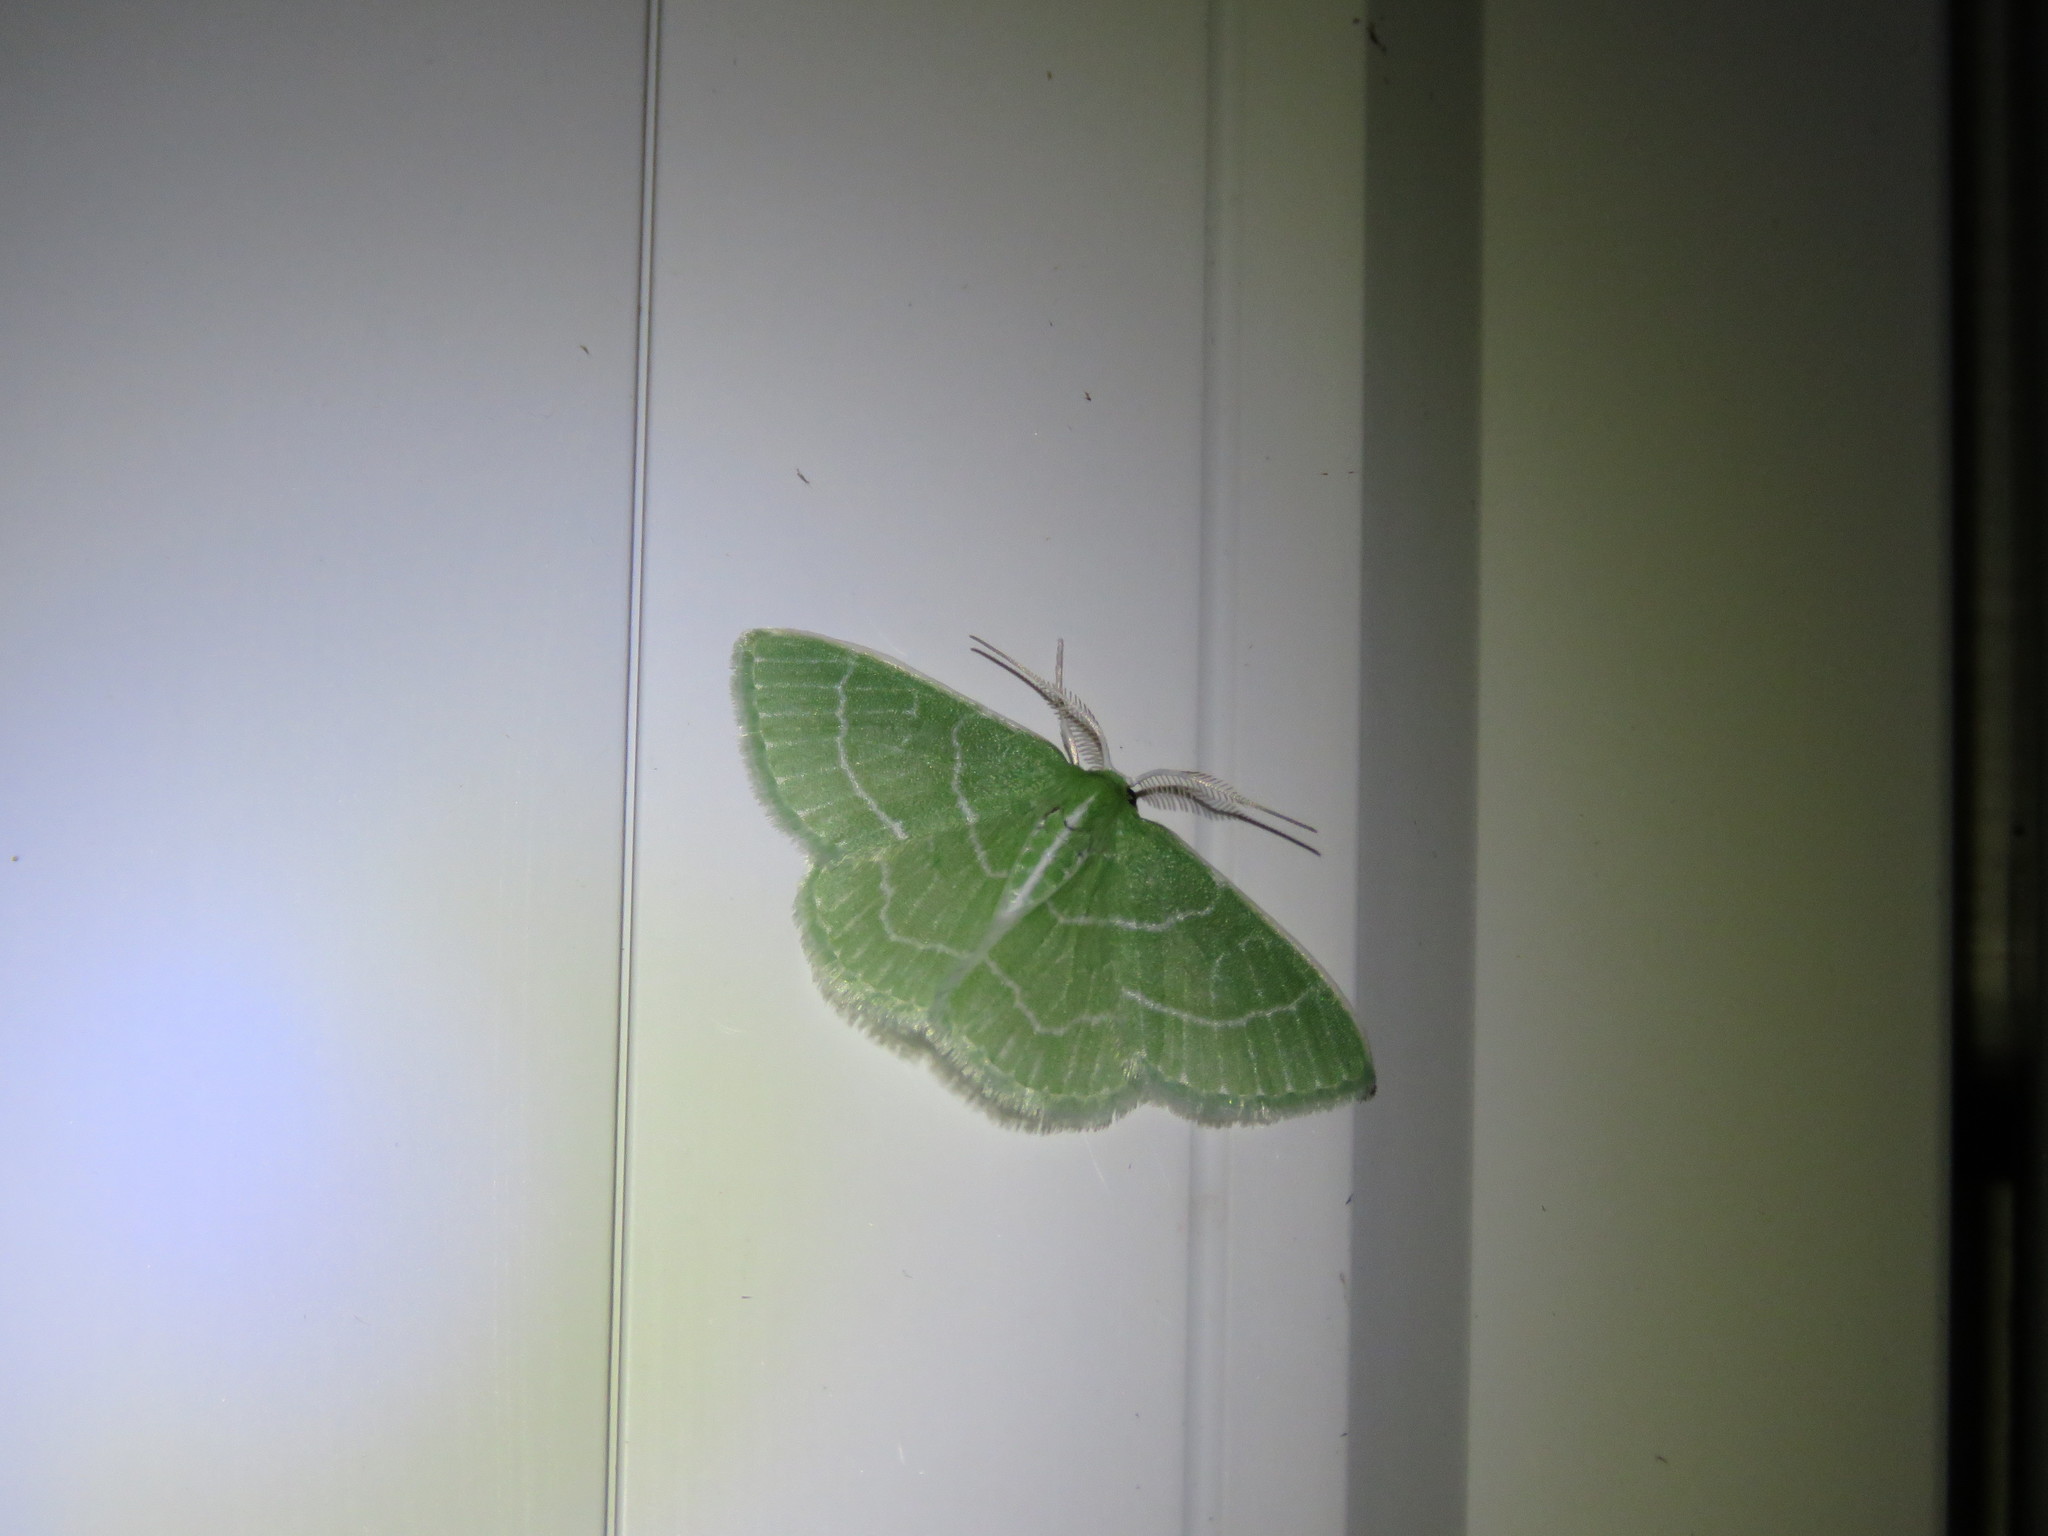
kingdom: Animalia
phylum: Arthropoda
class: Insecta
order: Lepidoptera
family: Geometridae
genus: Synchlora
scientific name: Synchlora aerata
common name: Wavy-lined emerald
